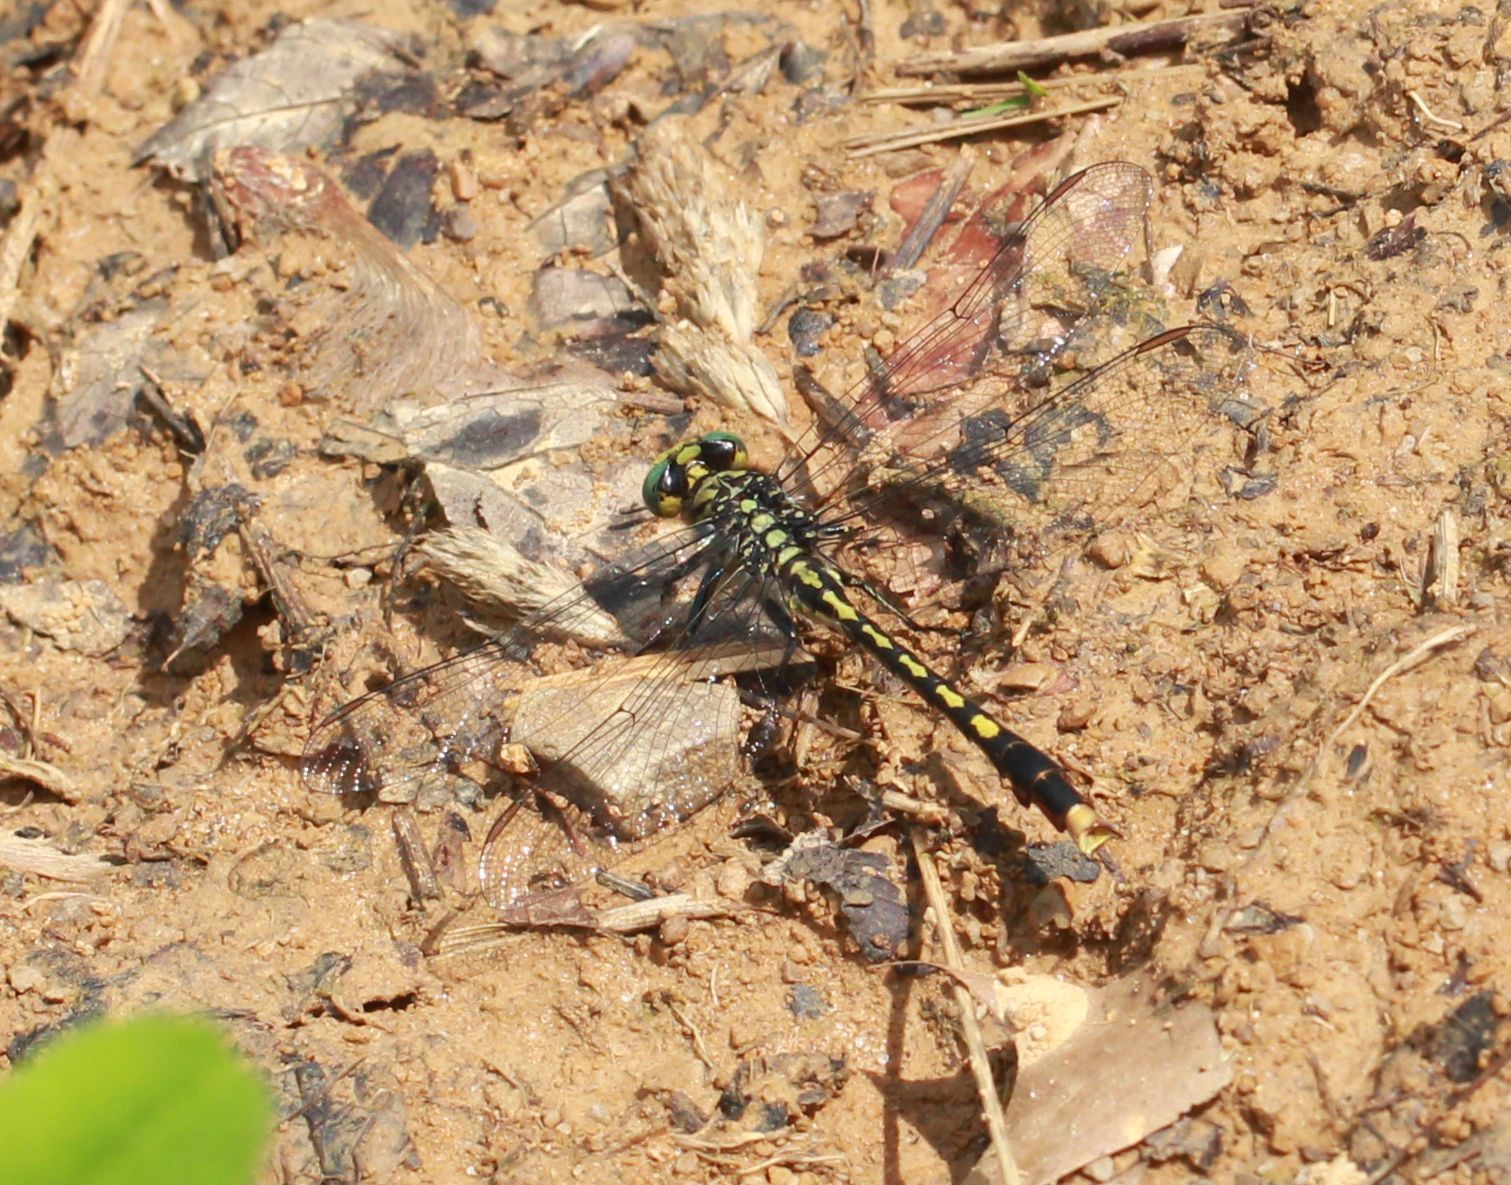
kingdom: Animalia
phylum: Arthropoda
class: Insecta
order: Odonata
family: Gomphidae
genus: Arigomphus
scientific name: Arigomphus villosipes
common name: Unicorn clubtail
